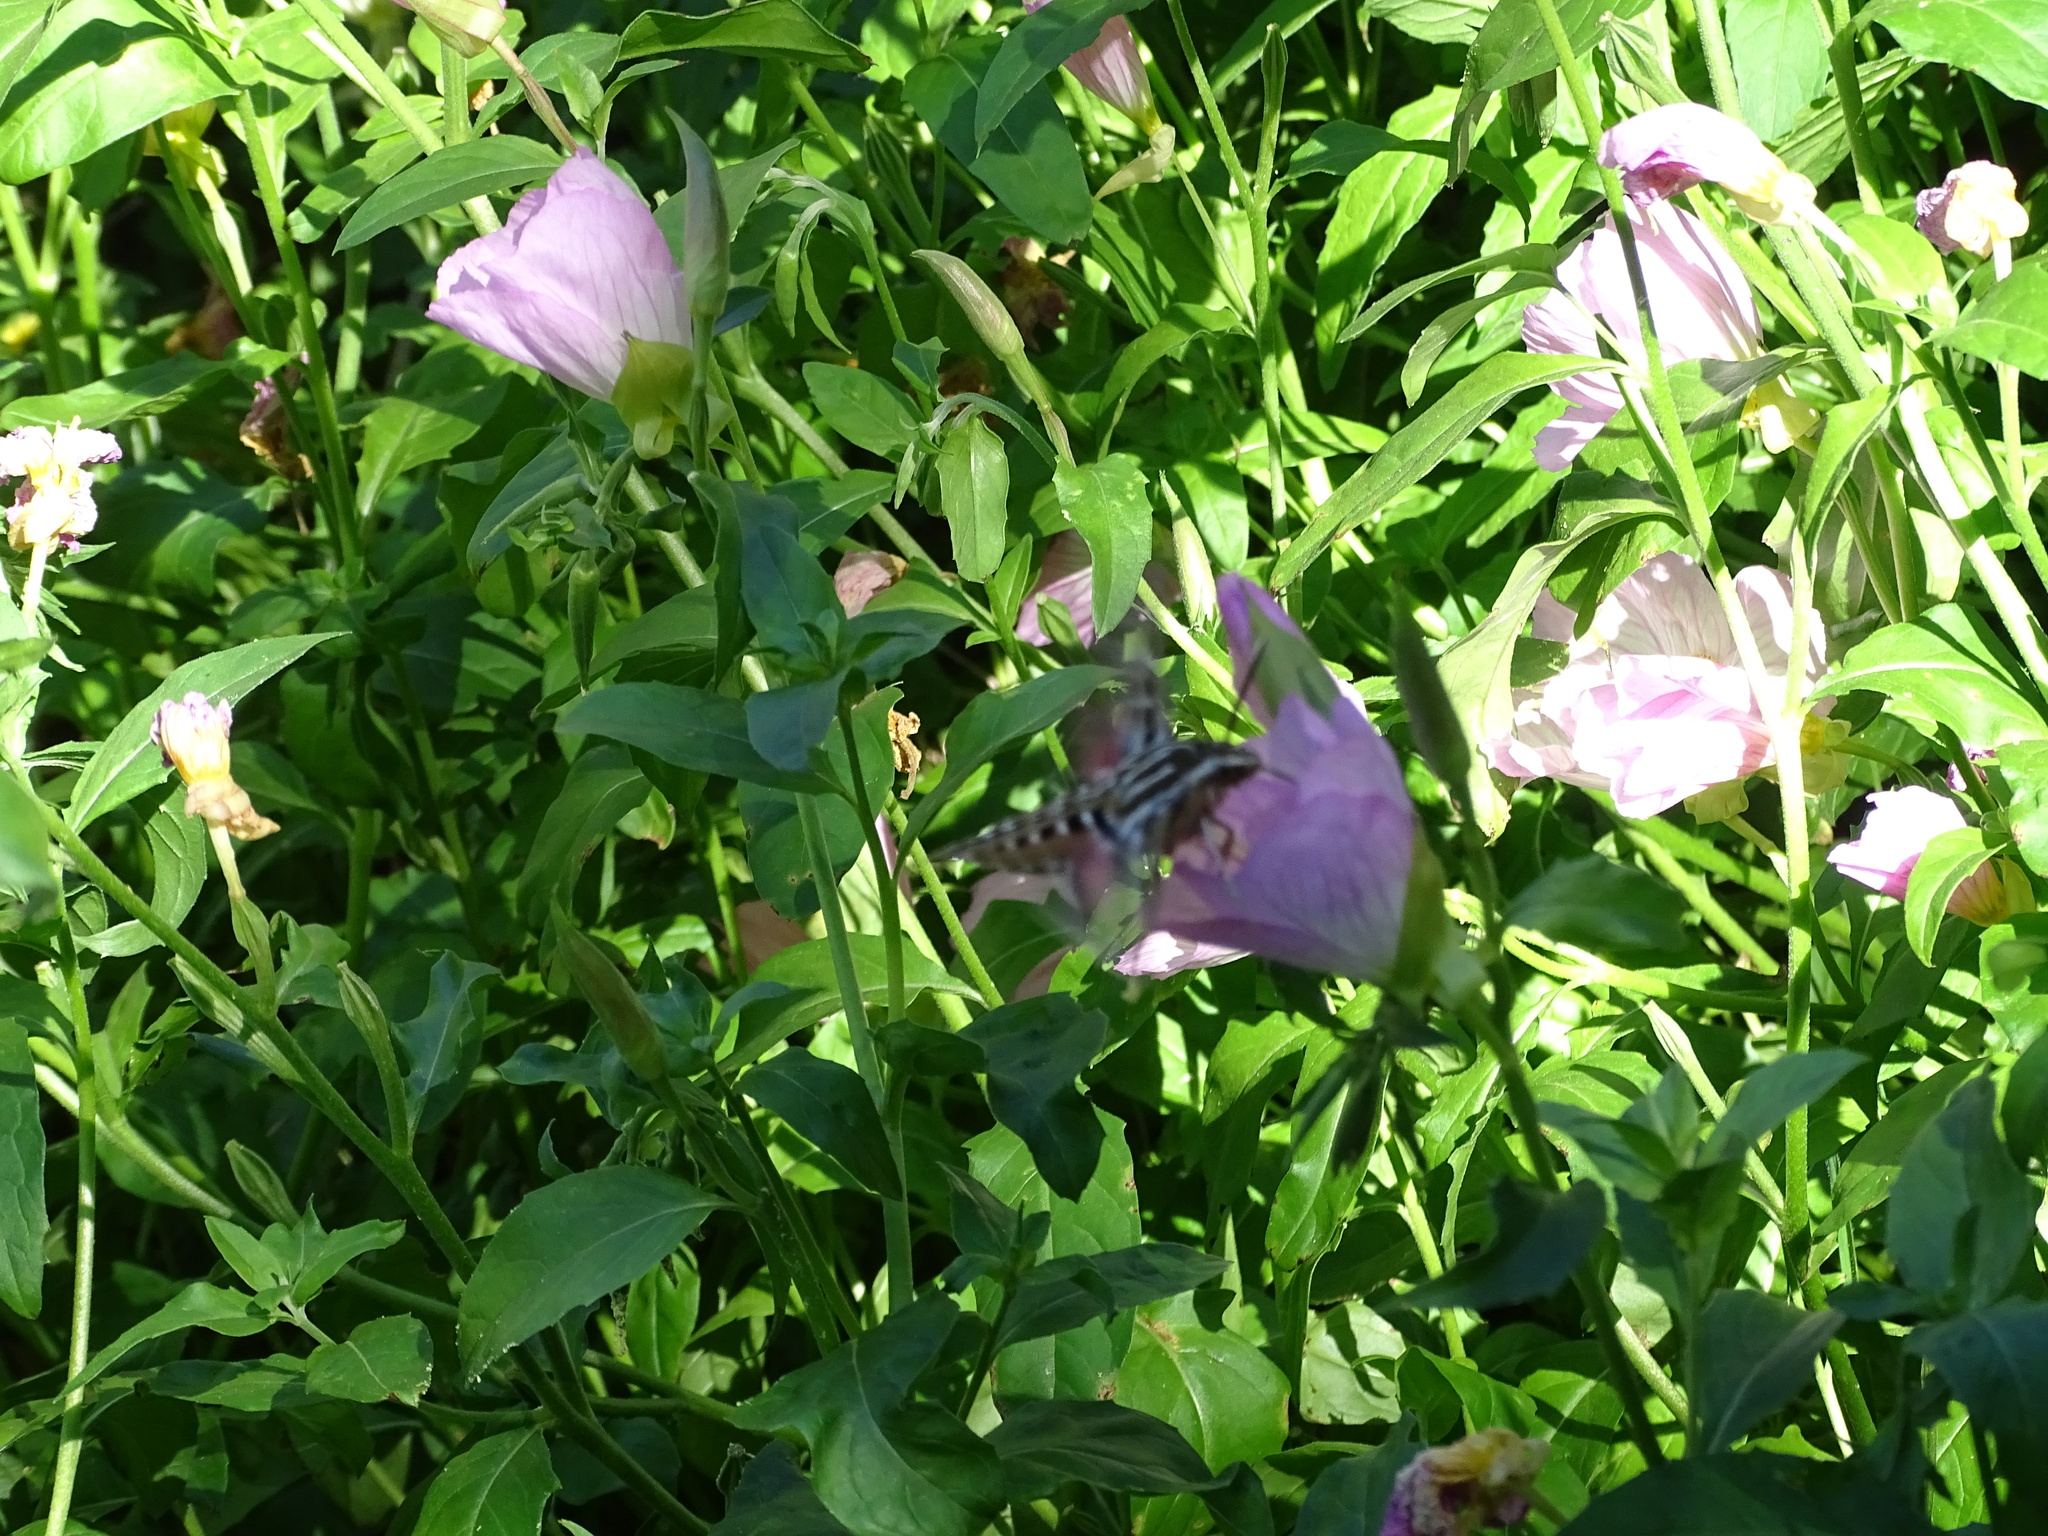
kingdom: Animalia
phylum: Arthropoda
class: Insecta
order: Lepidoptera
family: Sphingidae
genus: Hyles
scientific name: Hyles lineata
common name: White-lined sphinx
